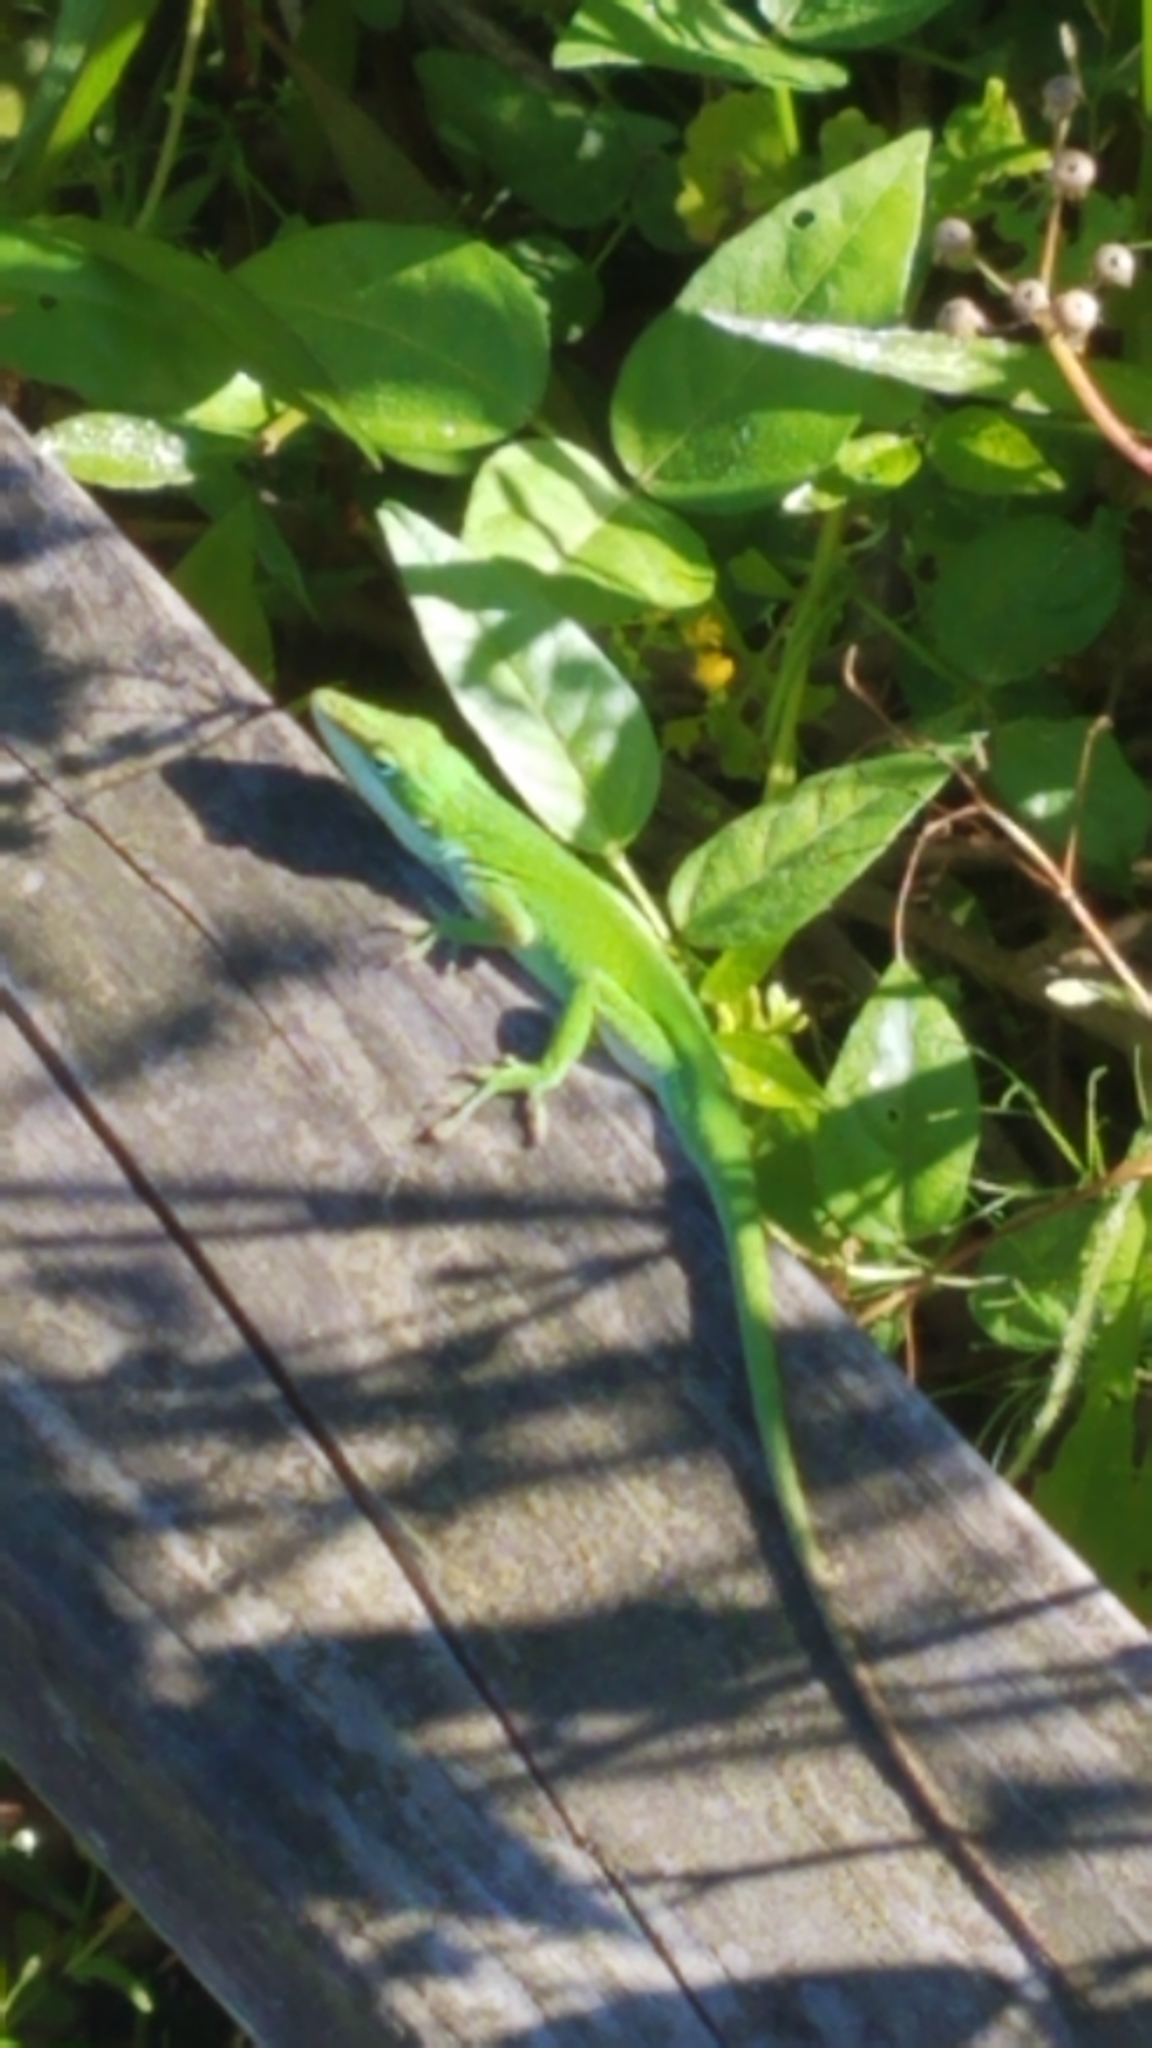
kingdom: Animalia
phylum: Chordata
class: Squamata
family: Dactyloidae
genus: Anolis
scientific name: Anolis carolinensis
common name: Green anole
